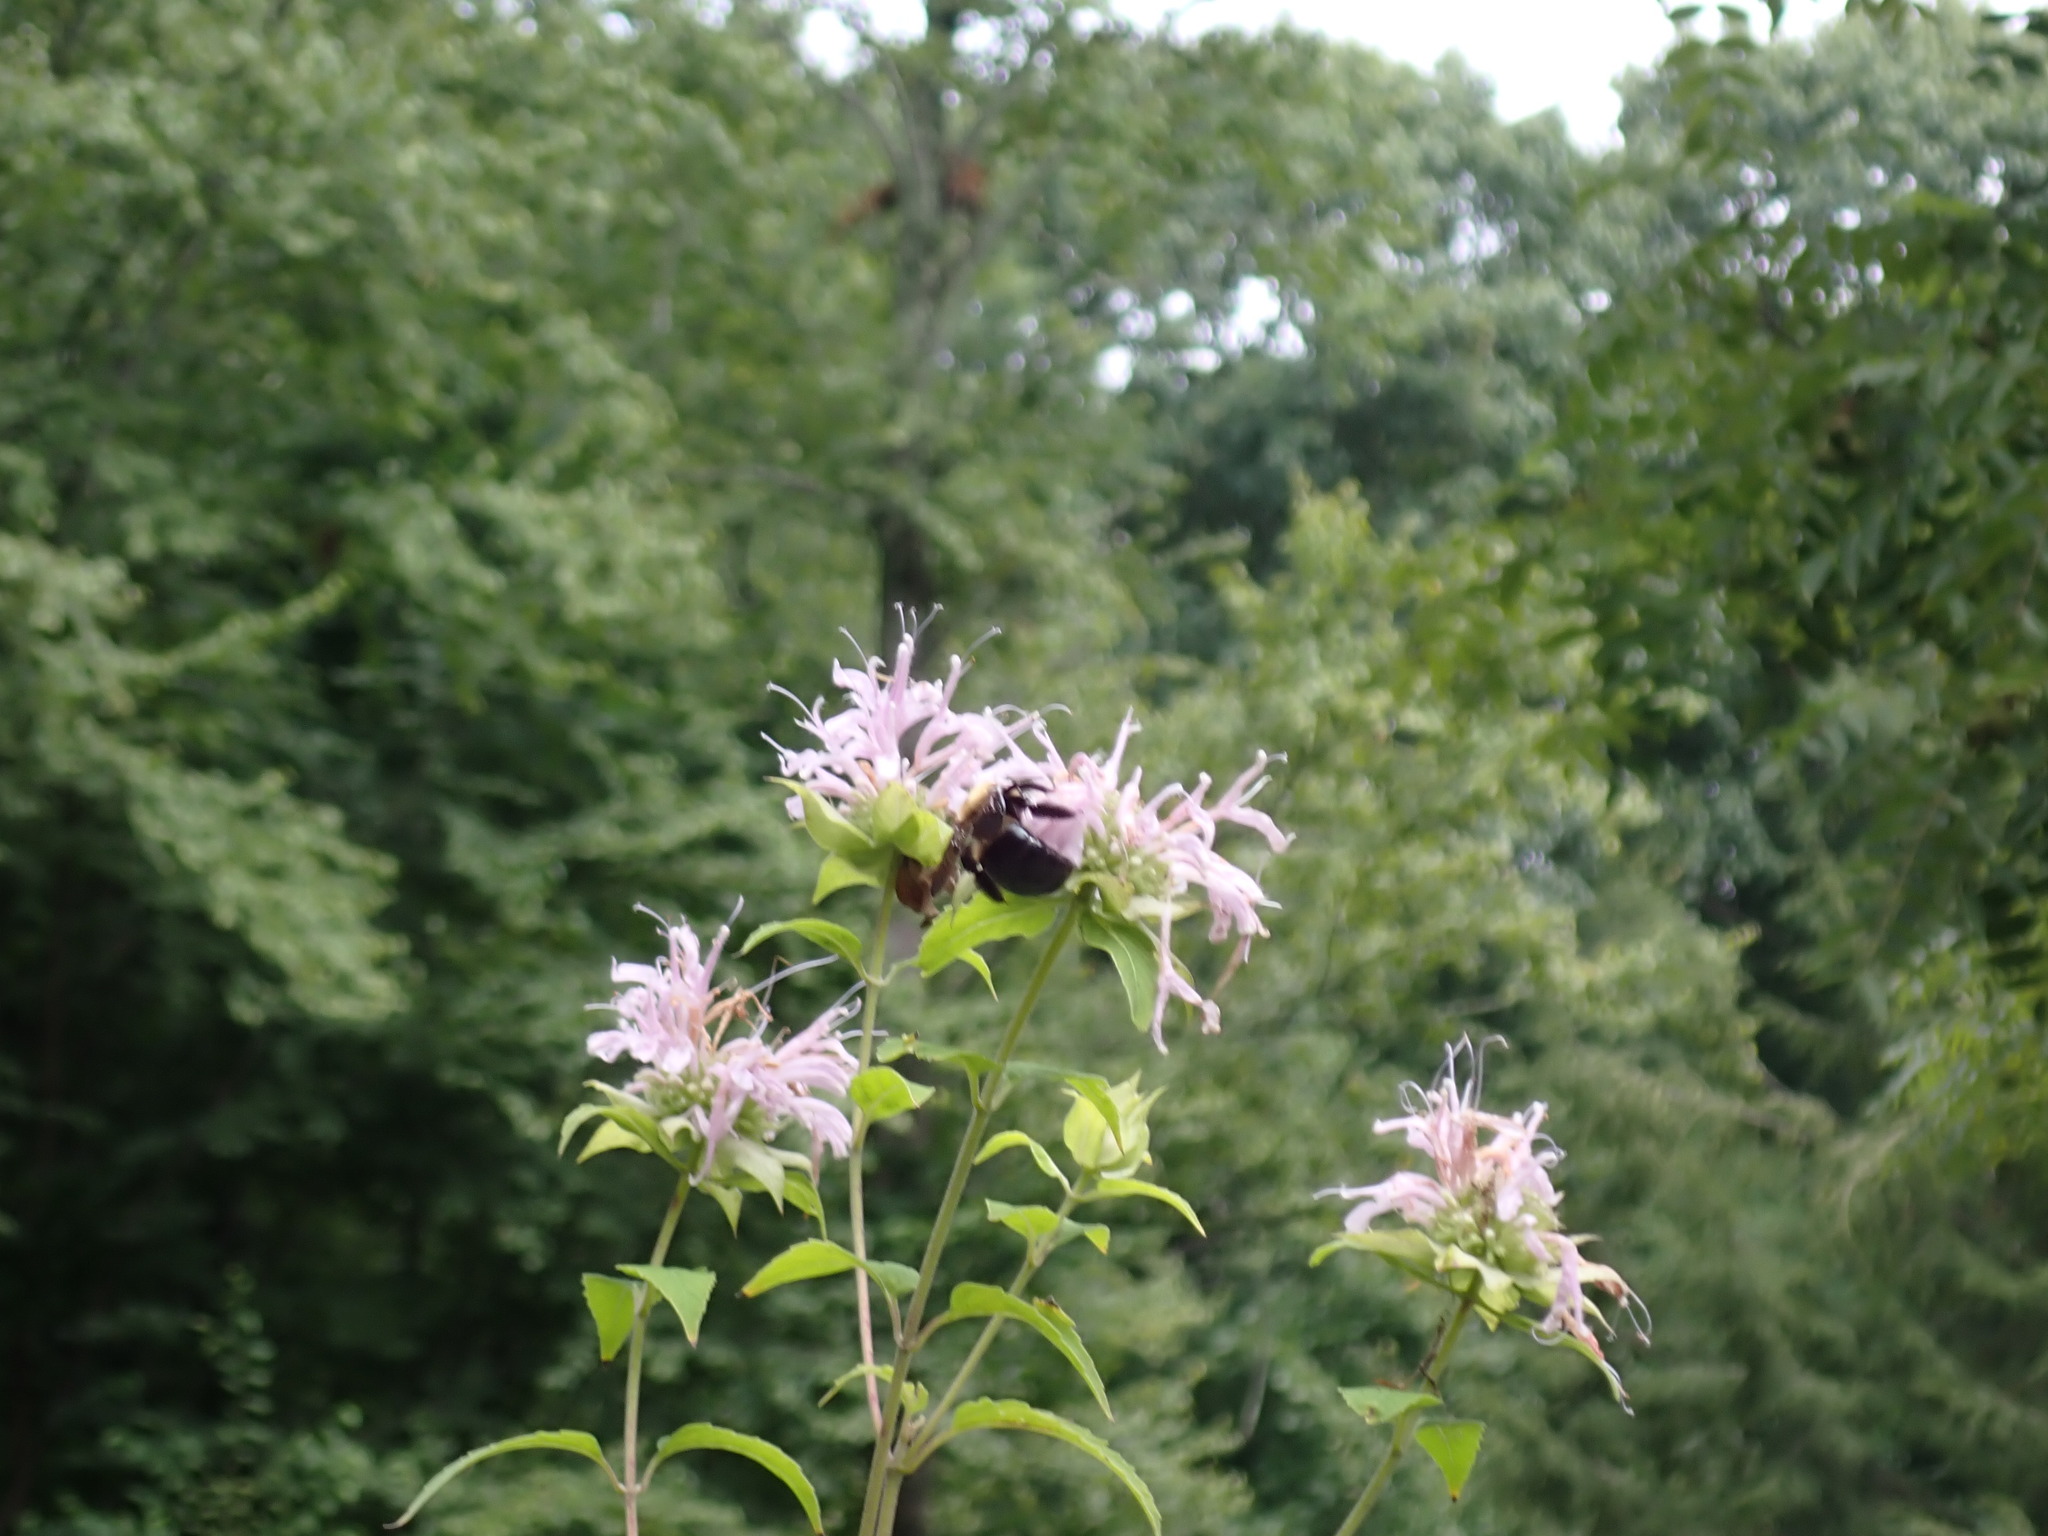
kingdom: Animalia
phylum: Arthropoda
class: Insecta
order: Hymenoptera
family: Apidae
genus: Xylocopa
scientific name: Xylocopa virginica
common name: Carpenter bee
